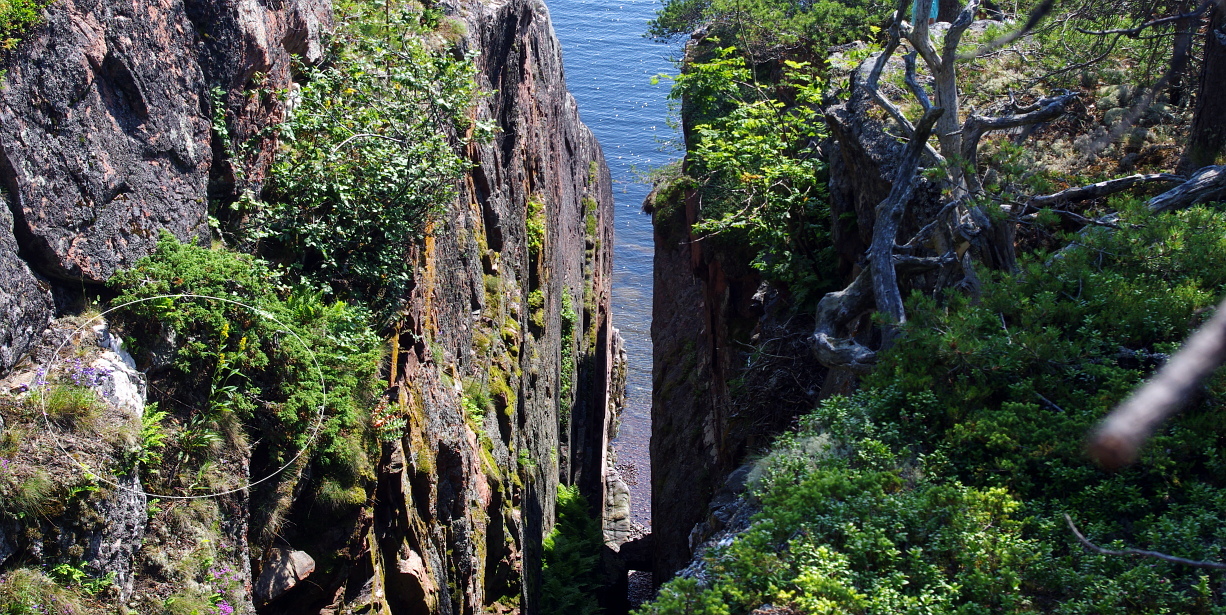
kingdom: Plantae
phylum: Tracheophyta
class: Pinopsida
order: Pinales
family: Cupressaceae
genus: Juniperus
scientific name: Juniperus communis
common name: Common juniper
